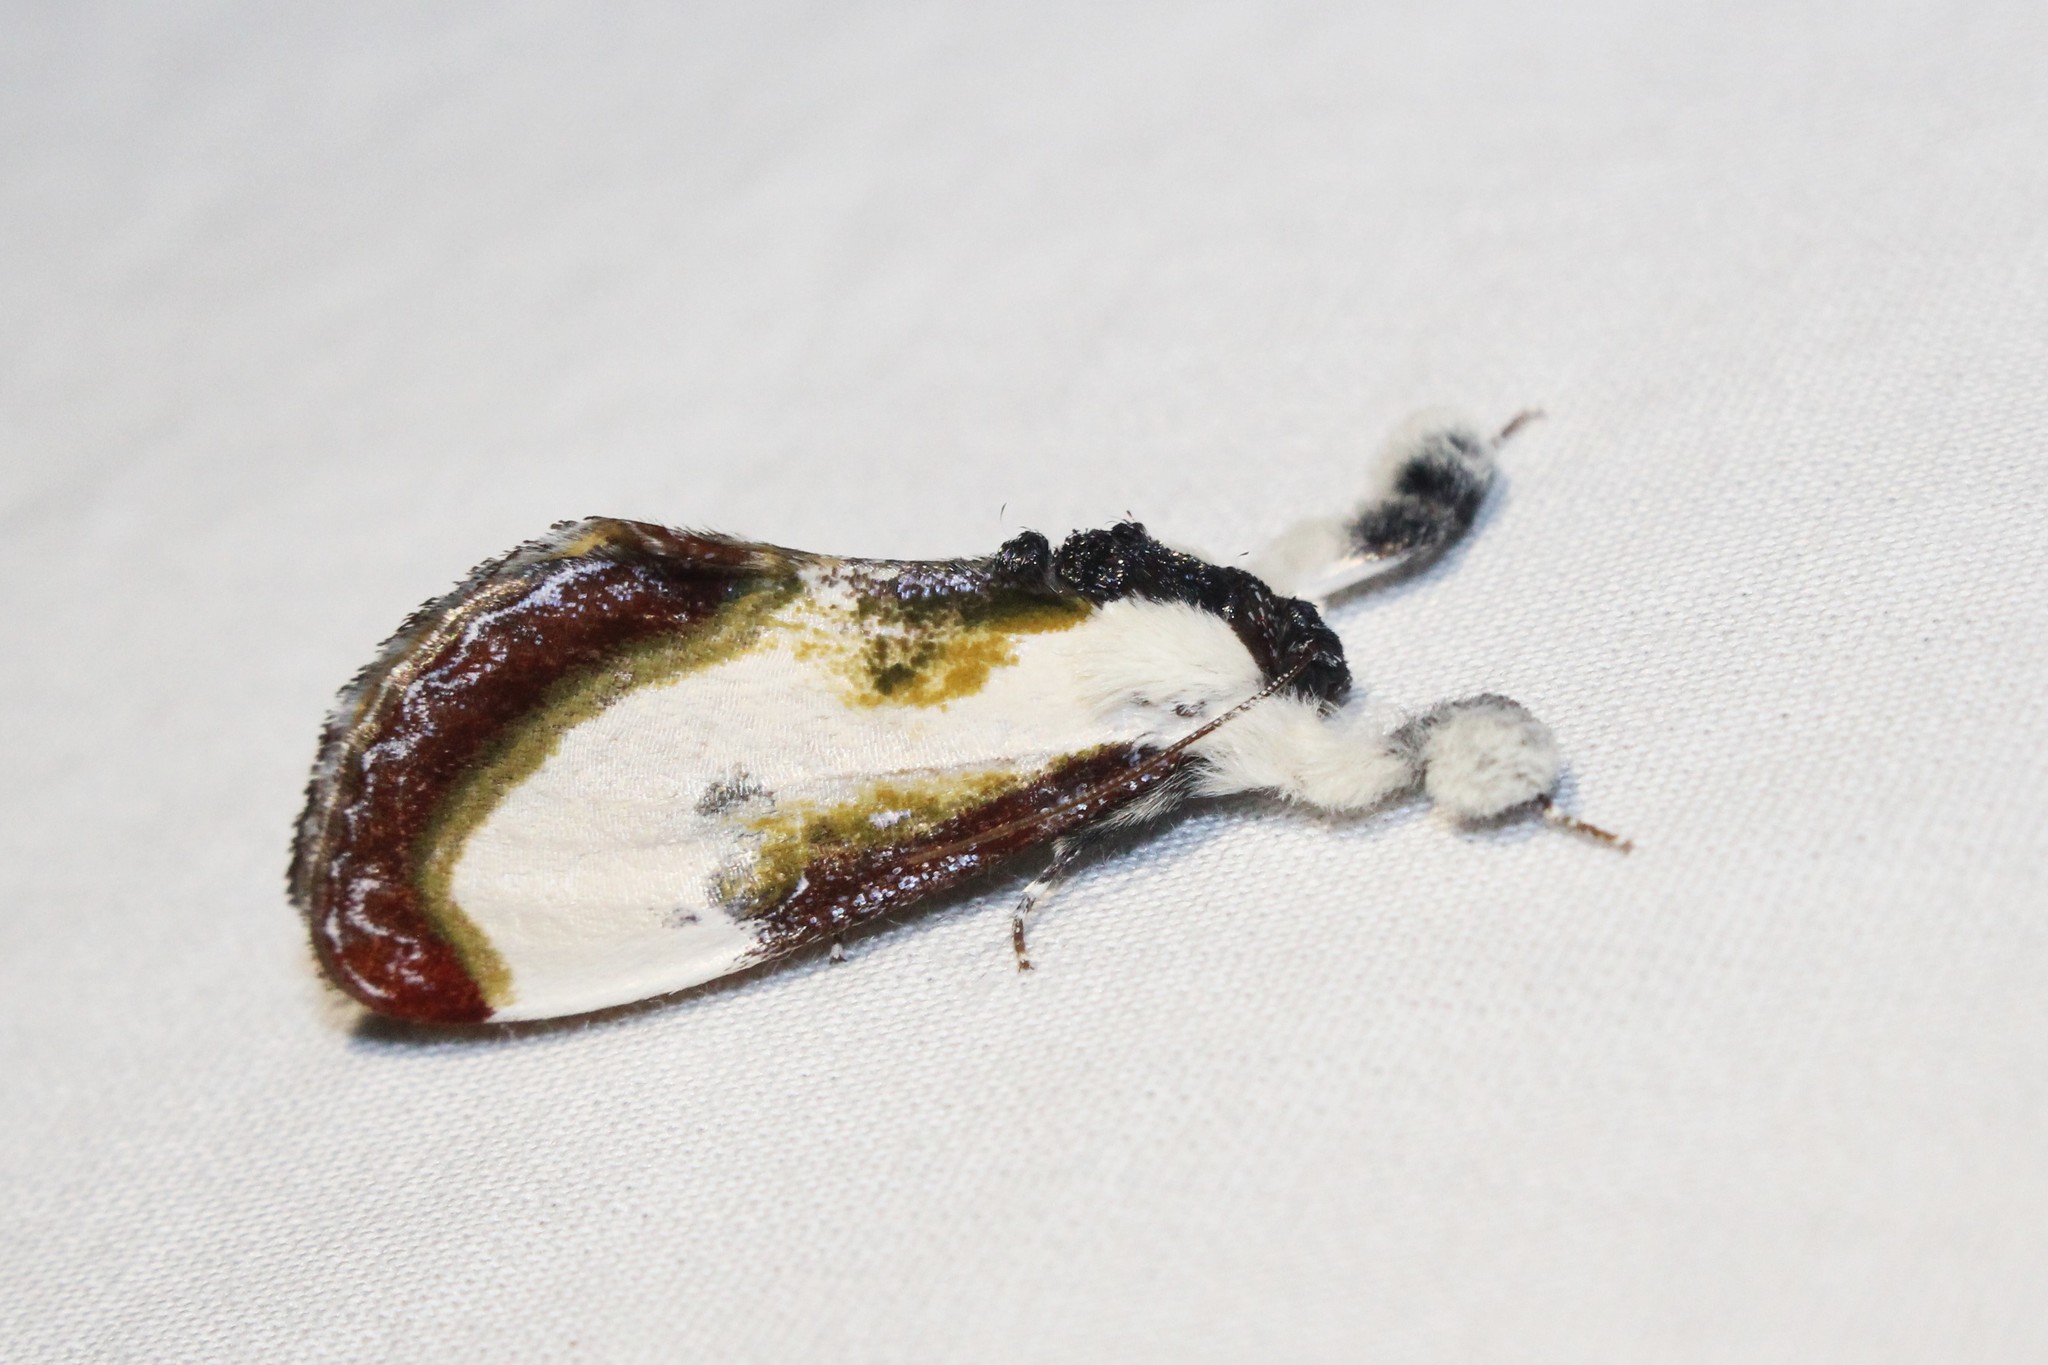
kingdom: Animalia
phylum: Arthropoda
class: Insecta
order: Lepidoptera
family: Noctuidae
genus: Eudryas
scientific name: Eudryas grata
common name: Beautiful wood-nymph
